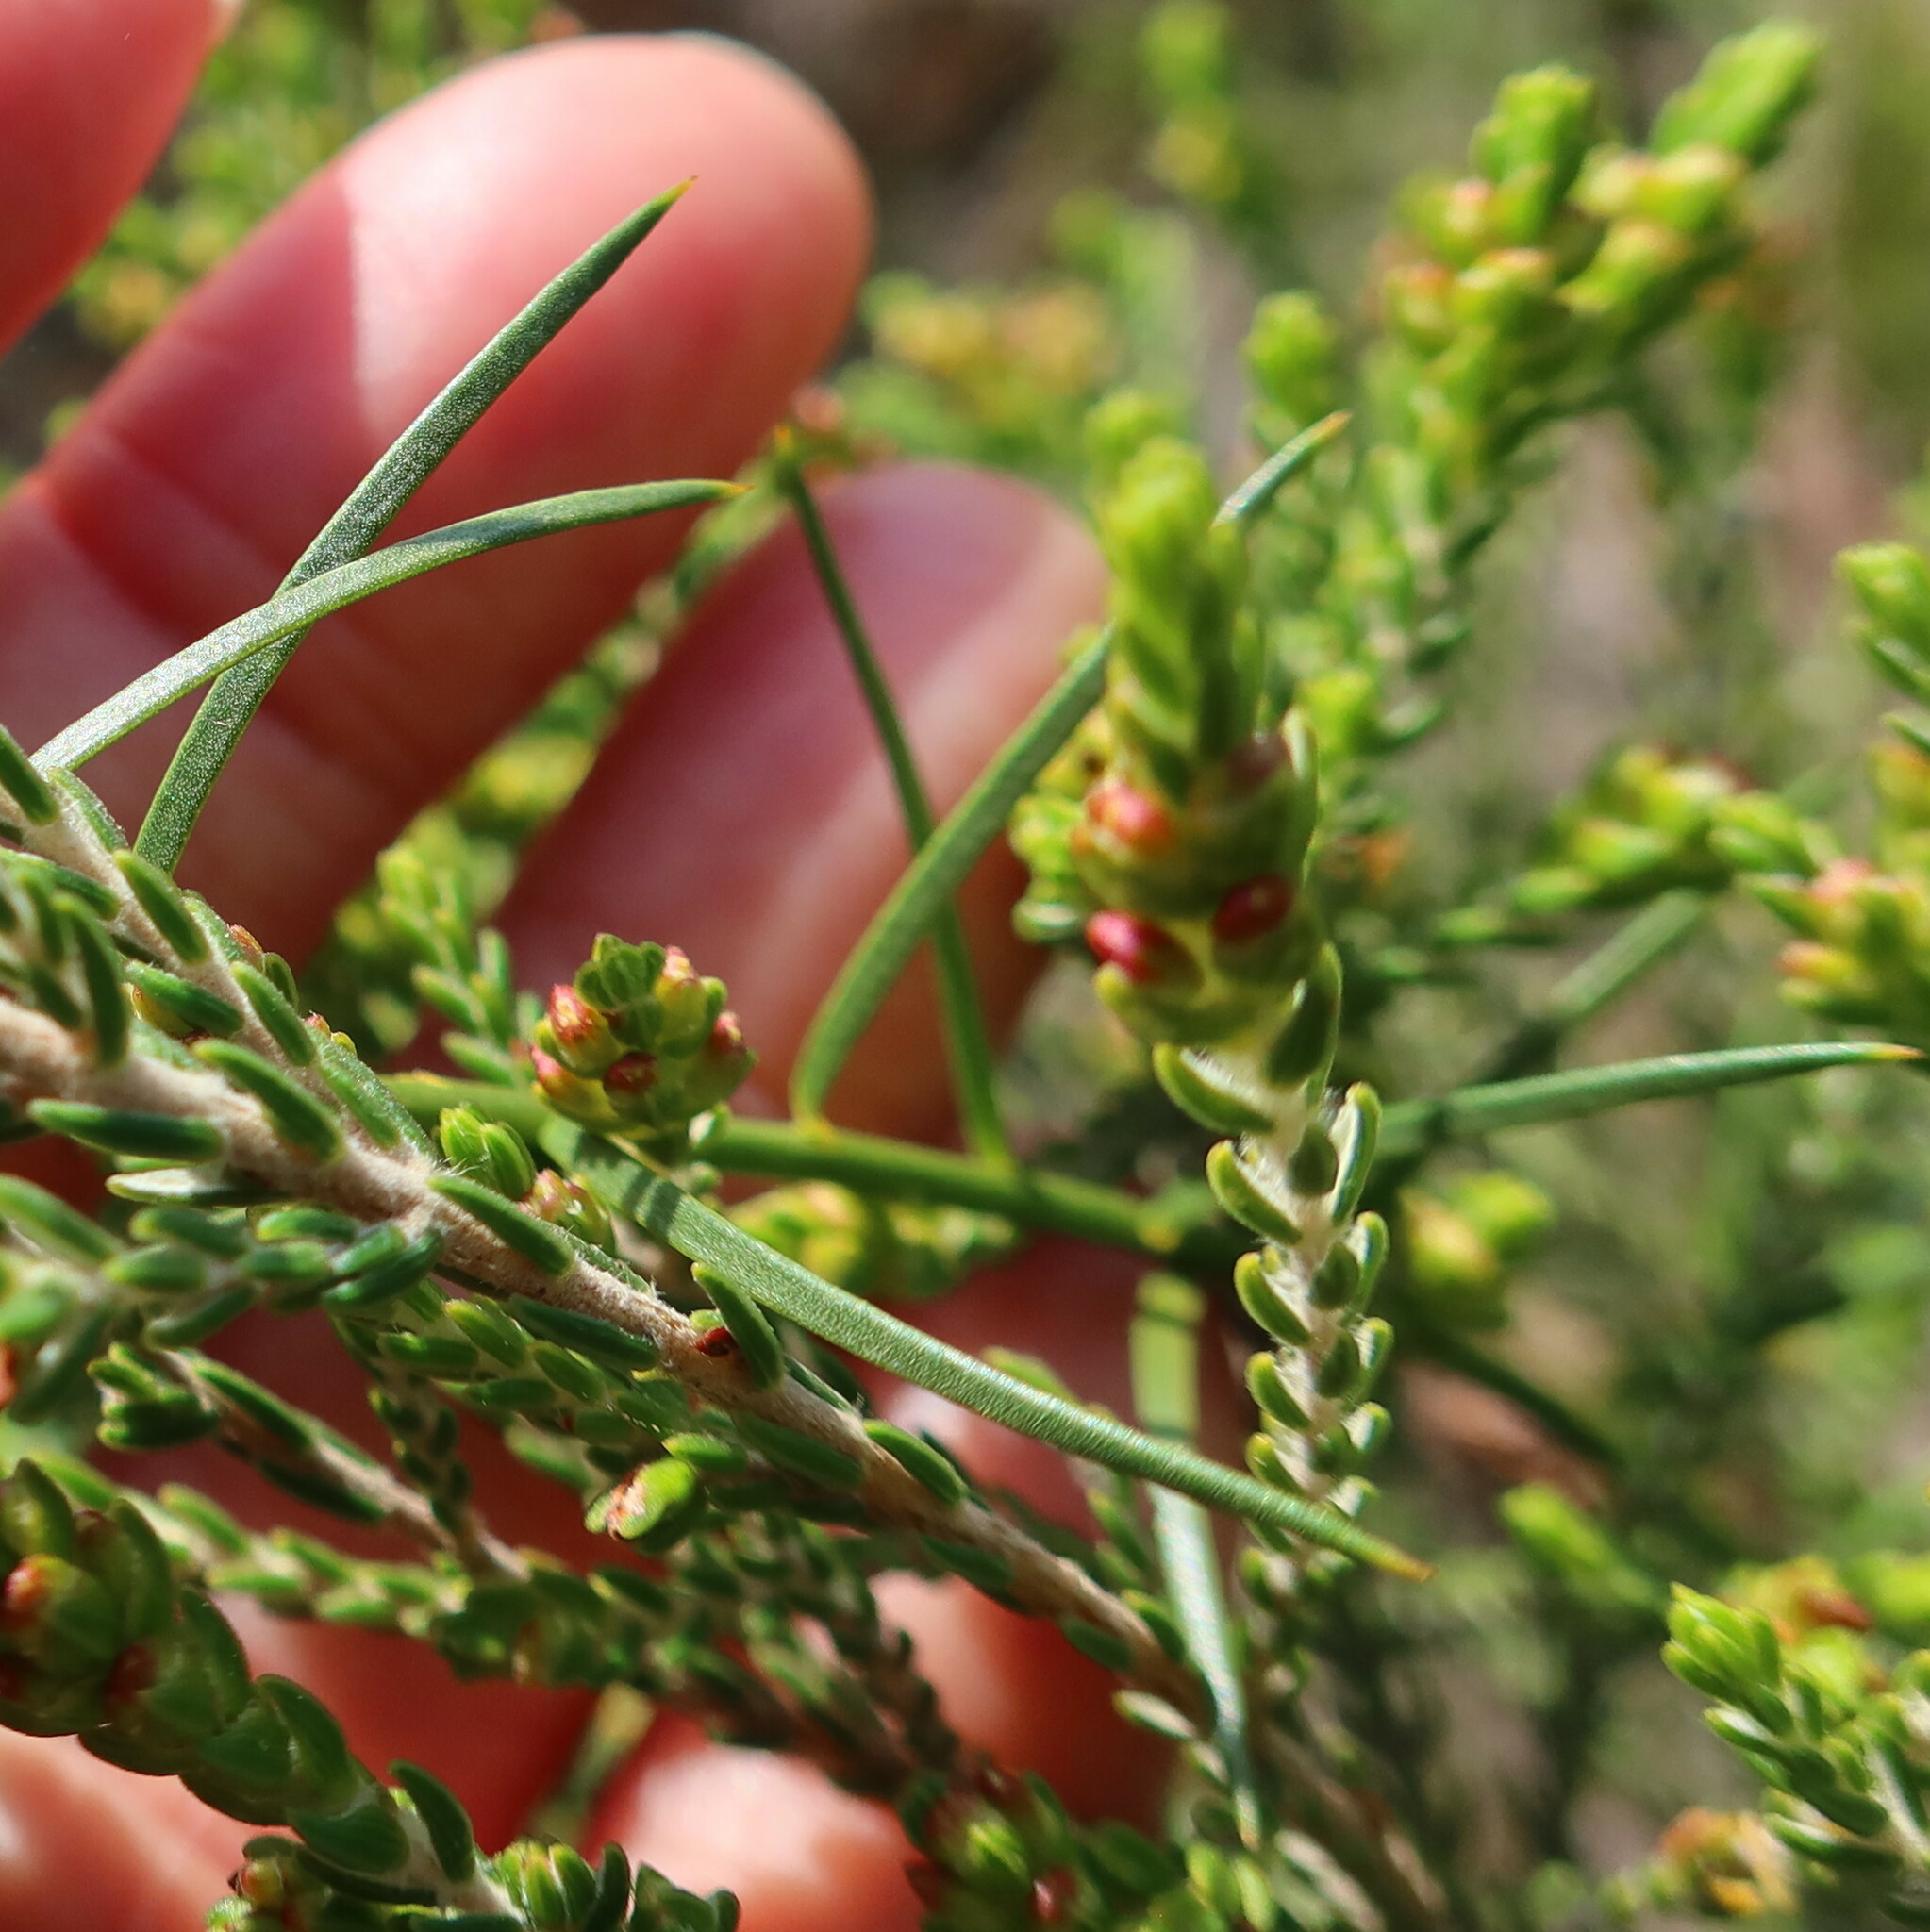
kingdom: Plantae
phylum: Tracheophyta
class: Magnoliopsida
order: Fabales
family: Polygalaceae
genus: Polygala
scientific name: Polygala garcini
